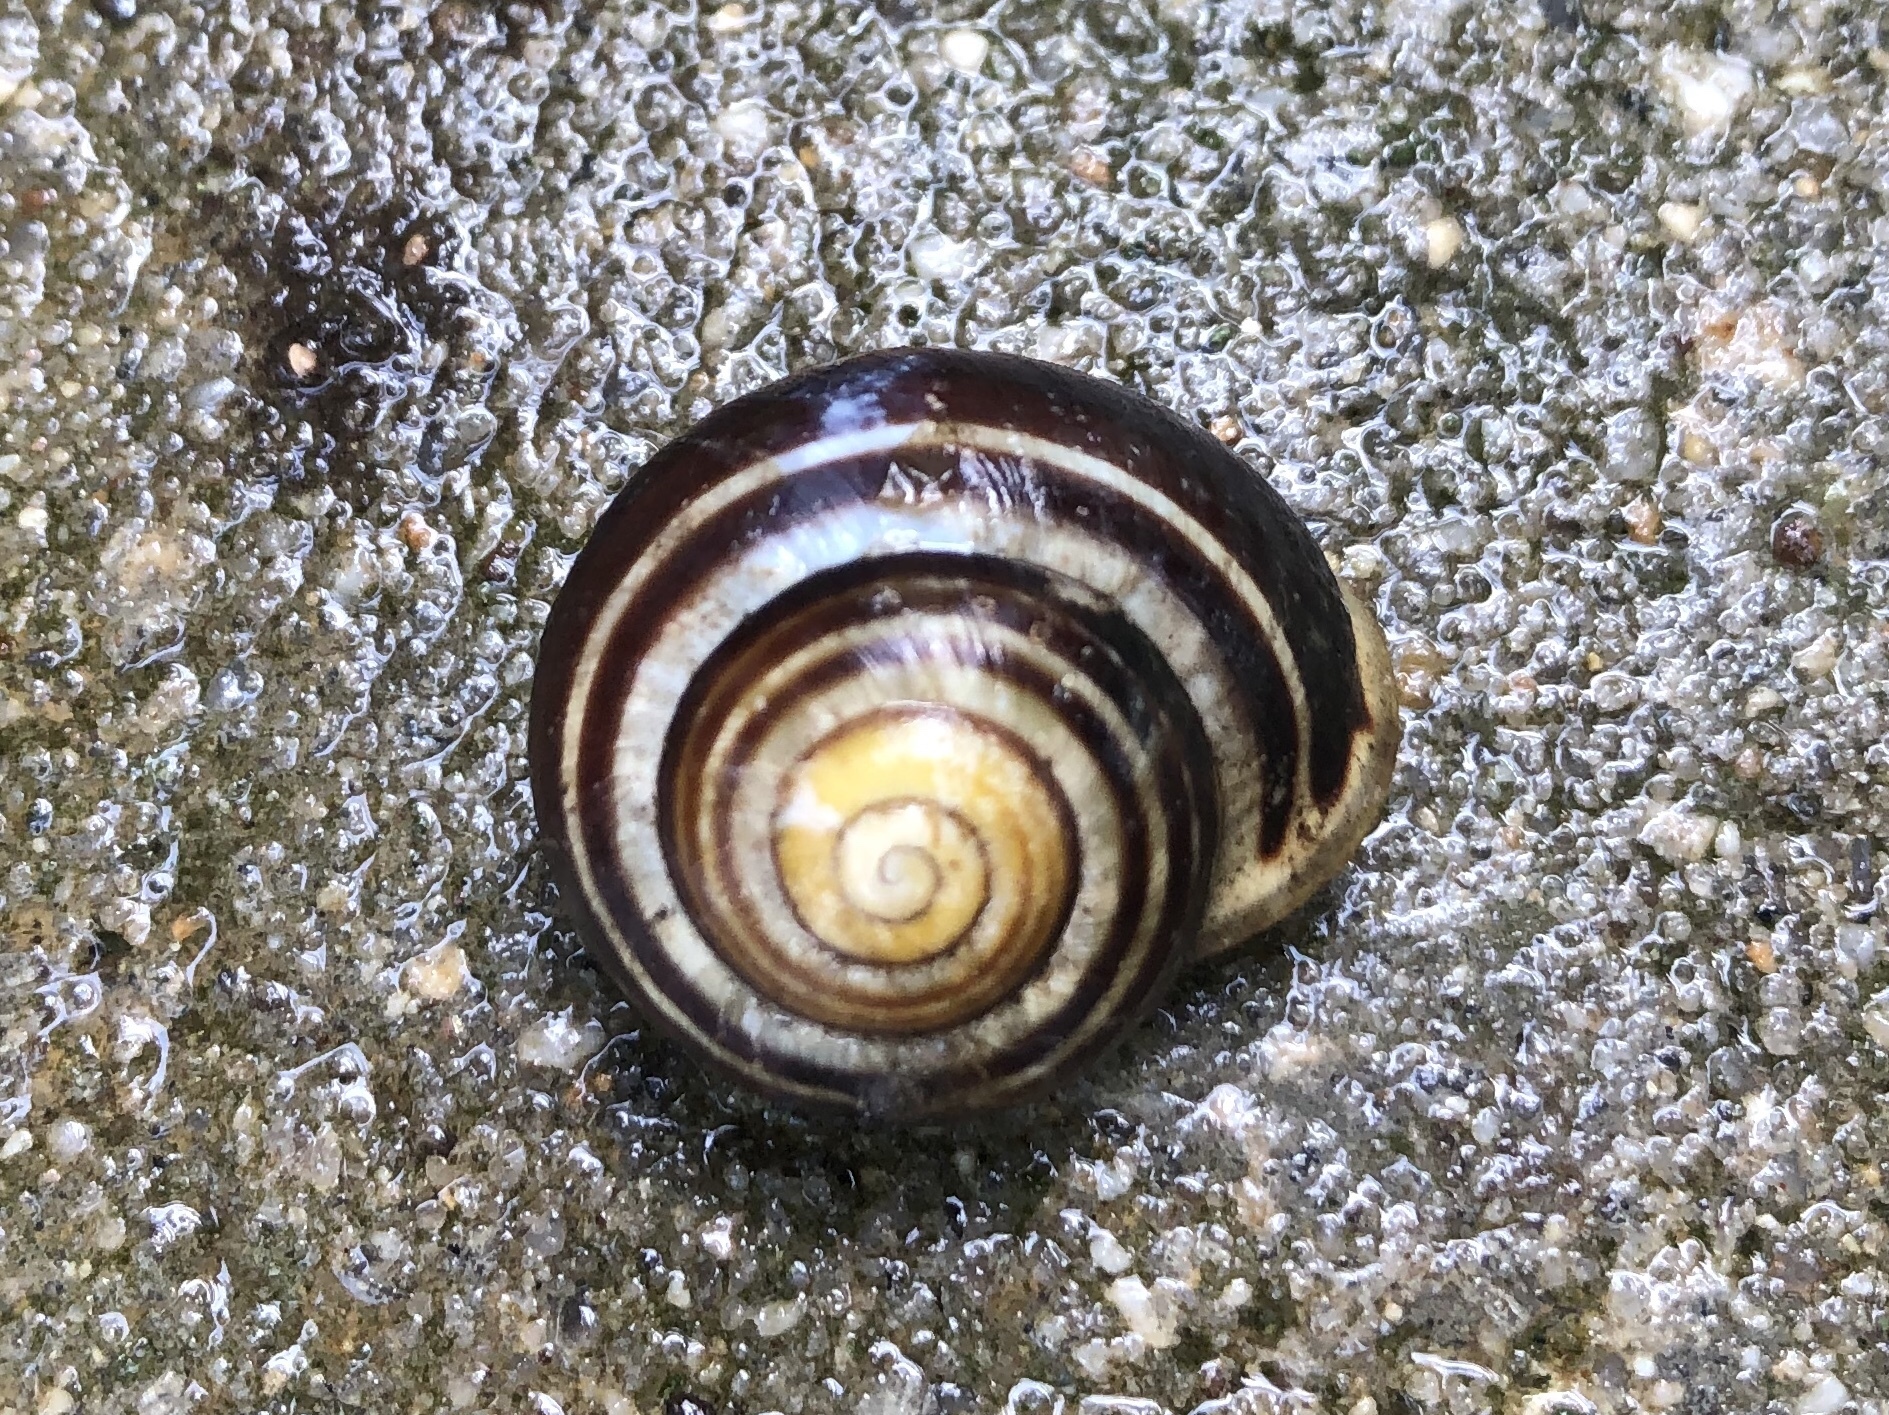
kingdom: Animalia
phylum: Mollusca
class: Gastropoda
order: Stylommatophora
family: Helicidae
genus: Cepaea
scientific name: Cepaea nemoralis
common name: Grovesnail
